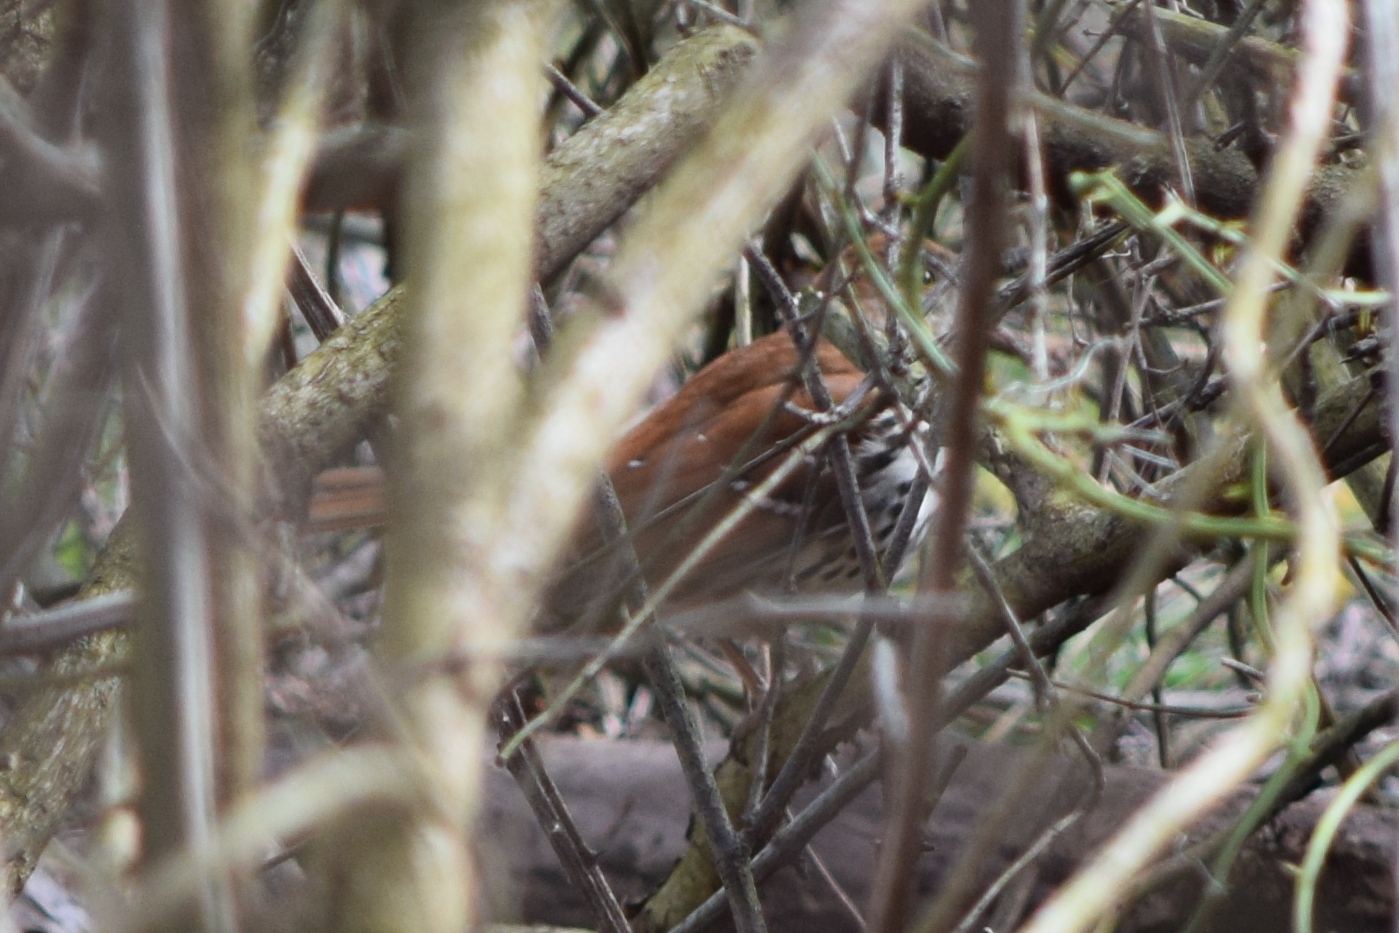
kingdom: Animalia
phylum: Chordata
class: Aves
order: Passeriformes
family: Mimidae
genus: Toxostoma
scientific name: Toxostoma rufum
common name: Brown thrasher
